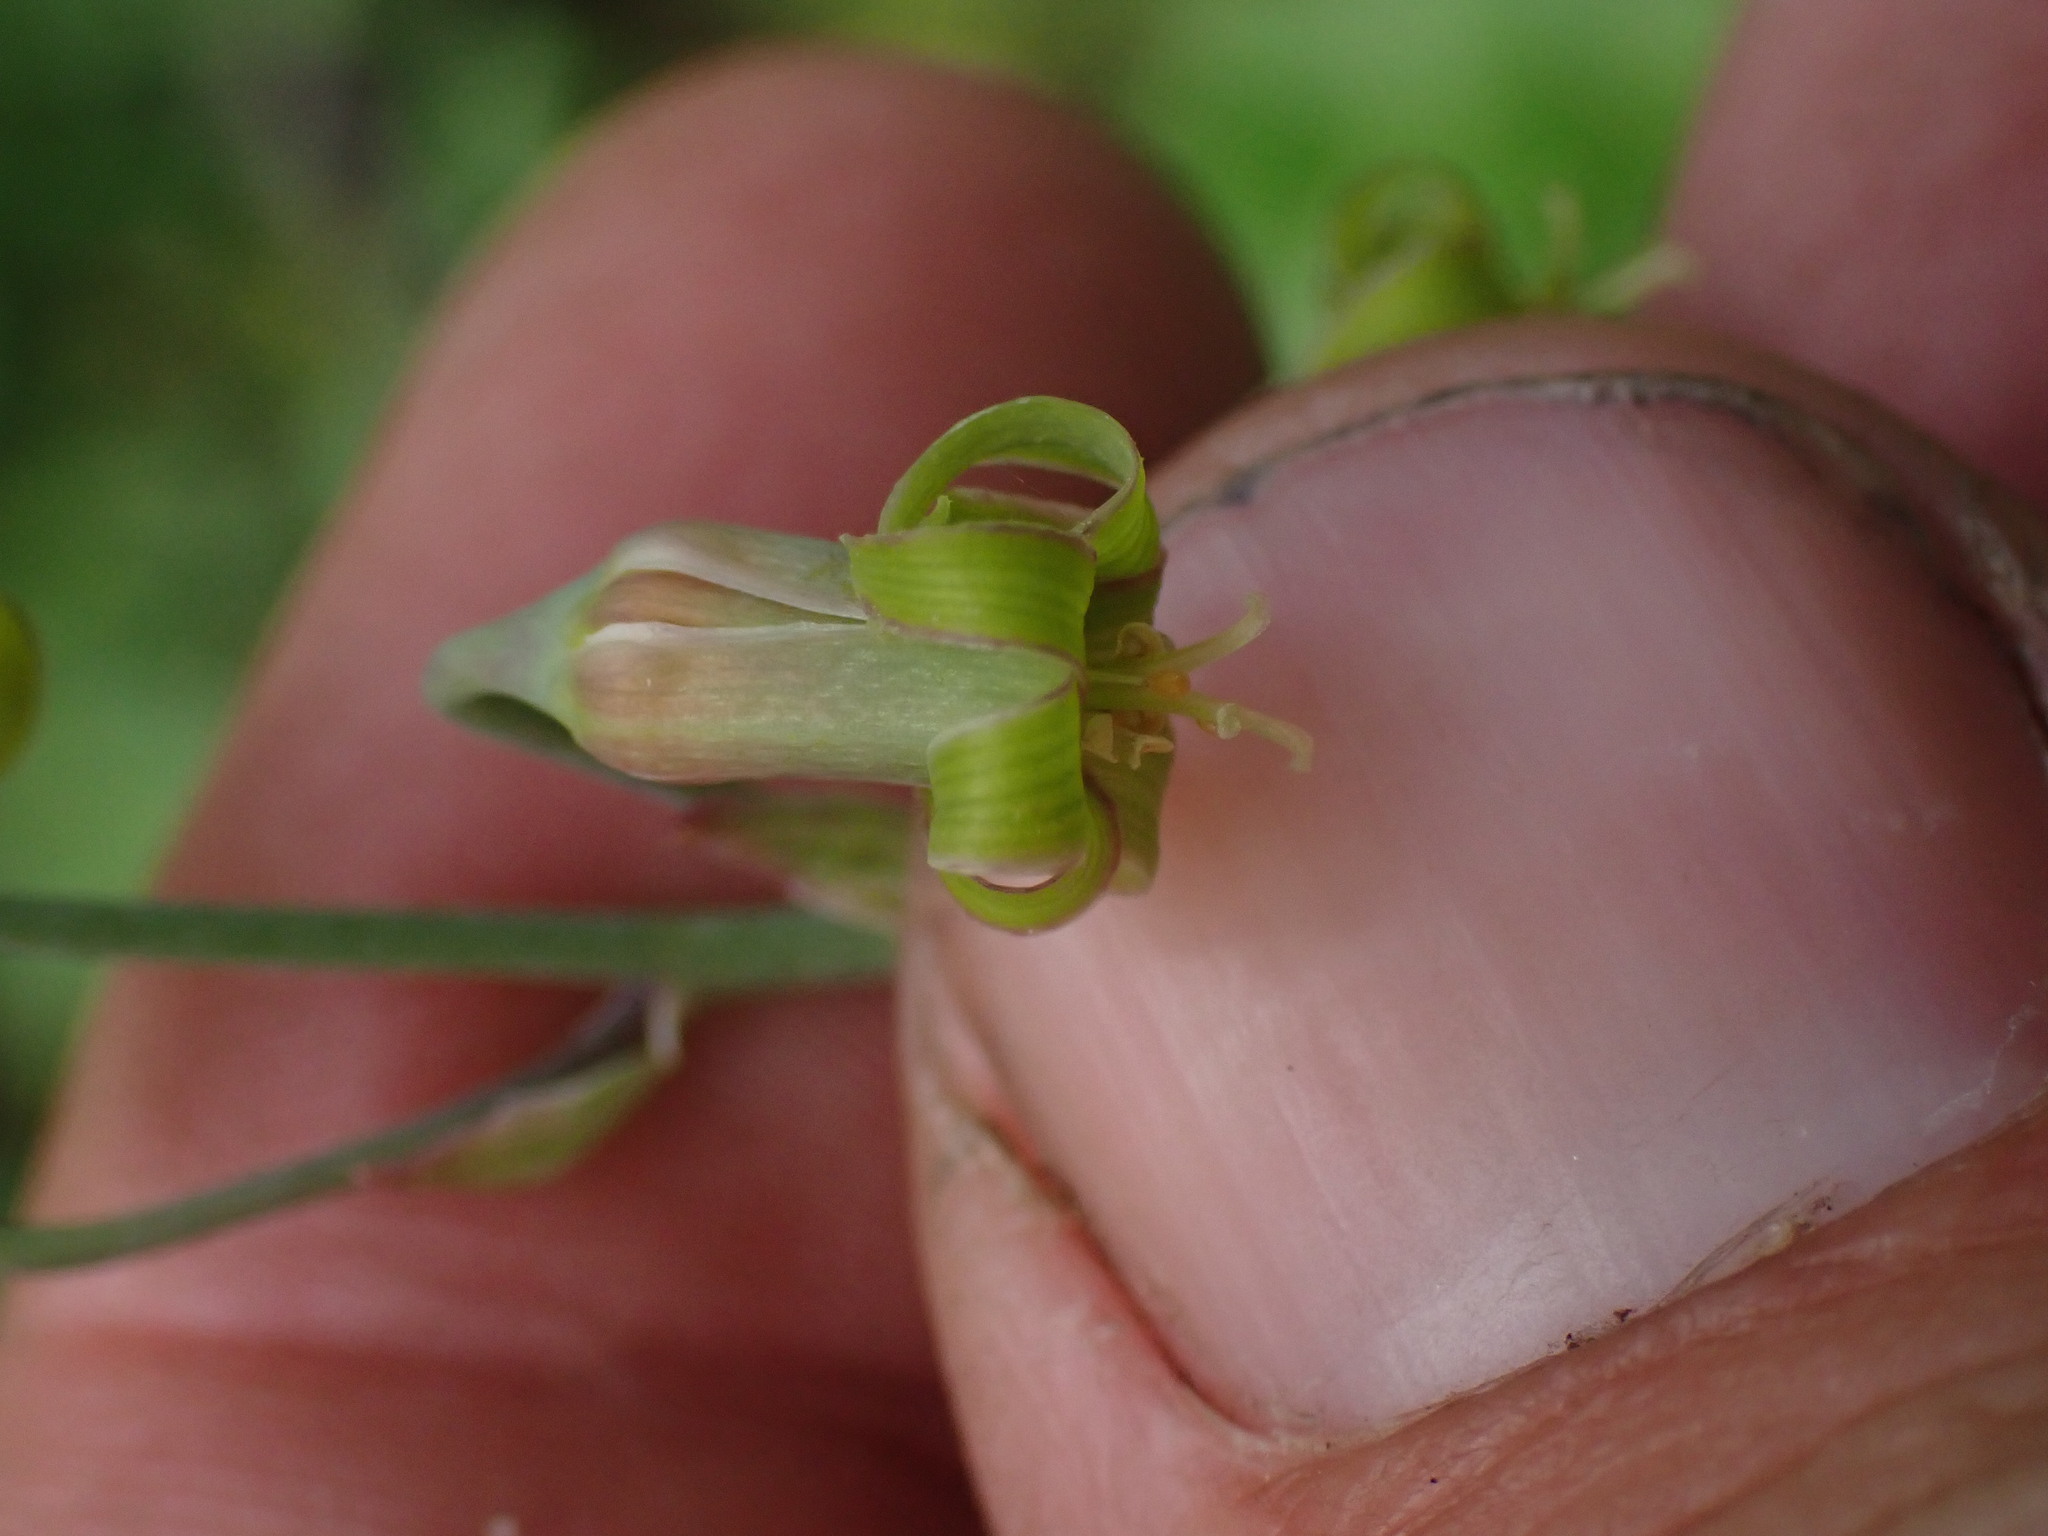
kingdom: Plantae
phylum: Tracheophyta
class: Liliopsida
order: Liliales
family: Melanthiaceae
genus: Anticlea
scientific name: Anticlea occidentalis
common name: Bronze-bells
